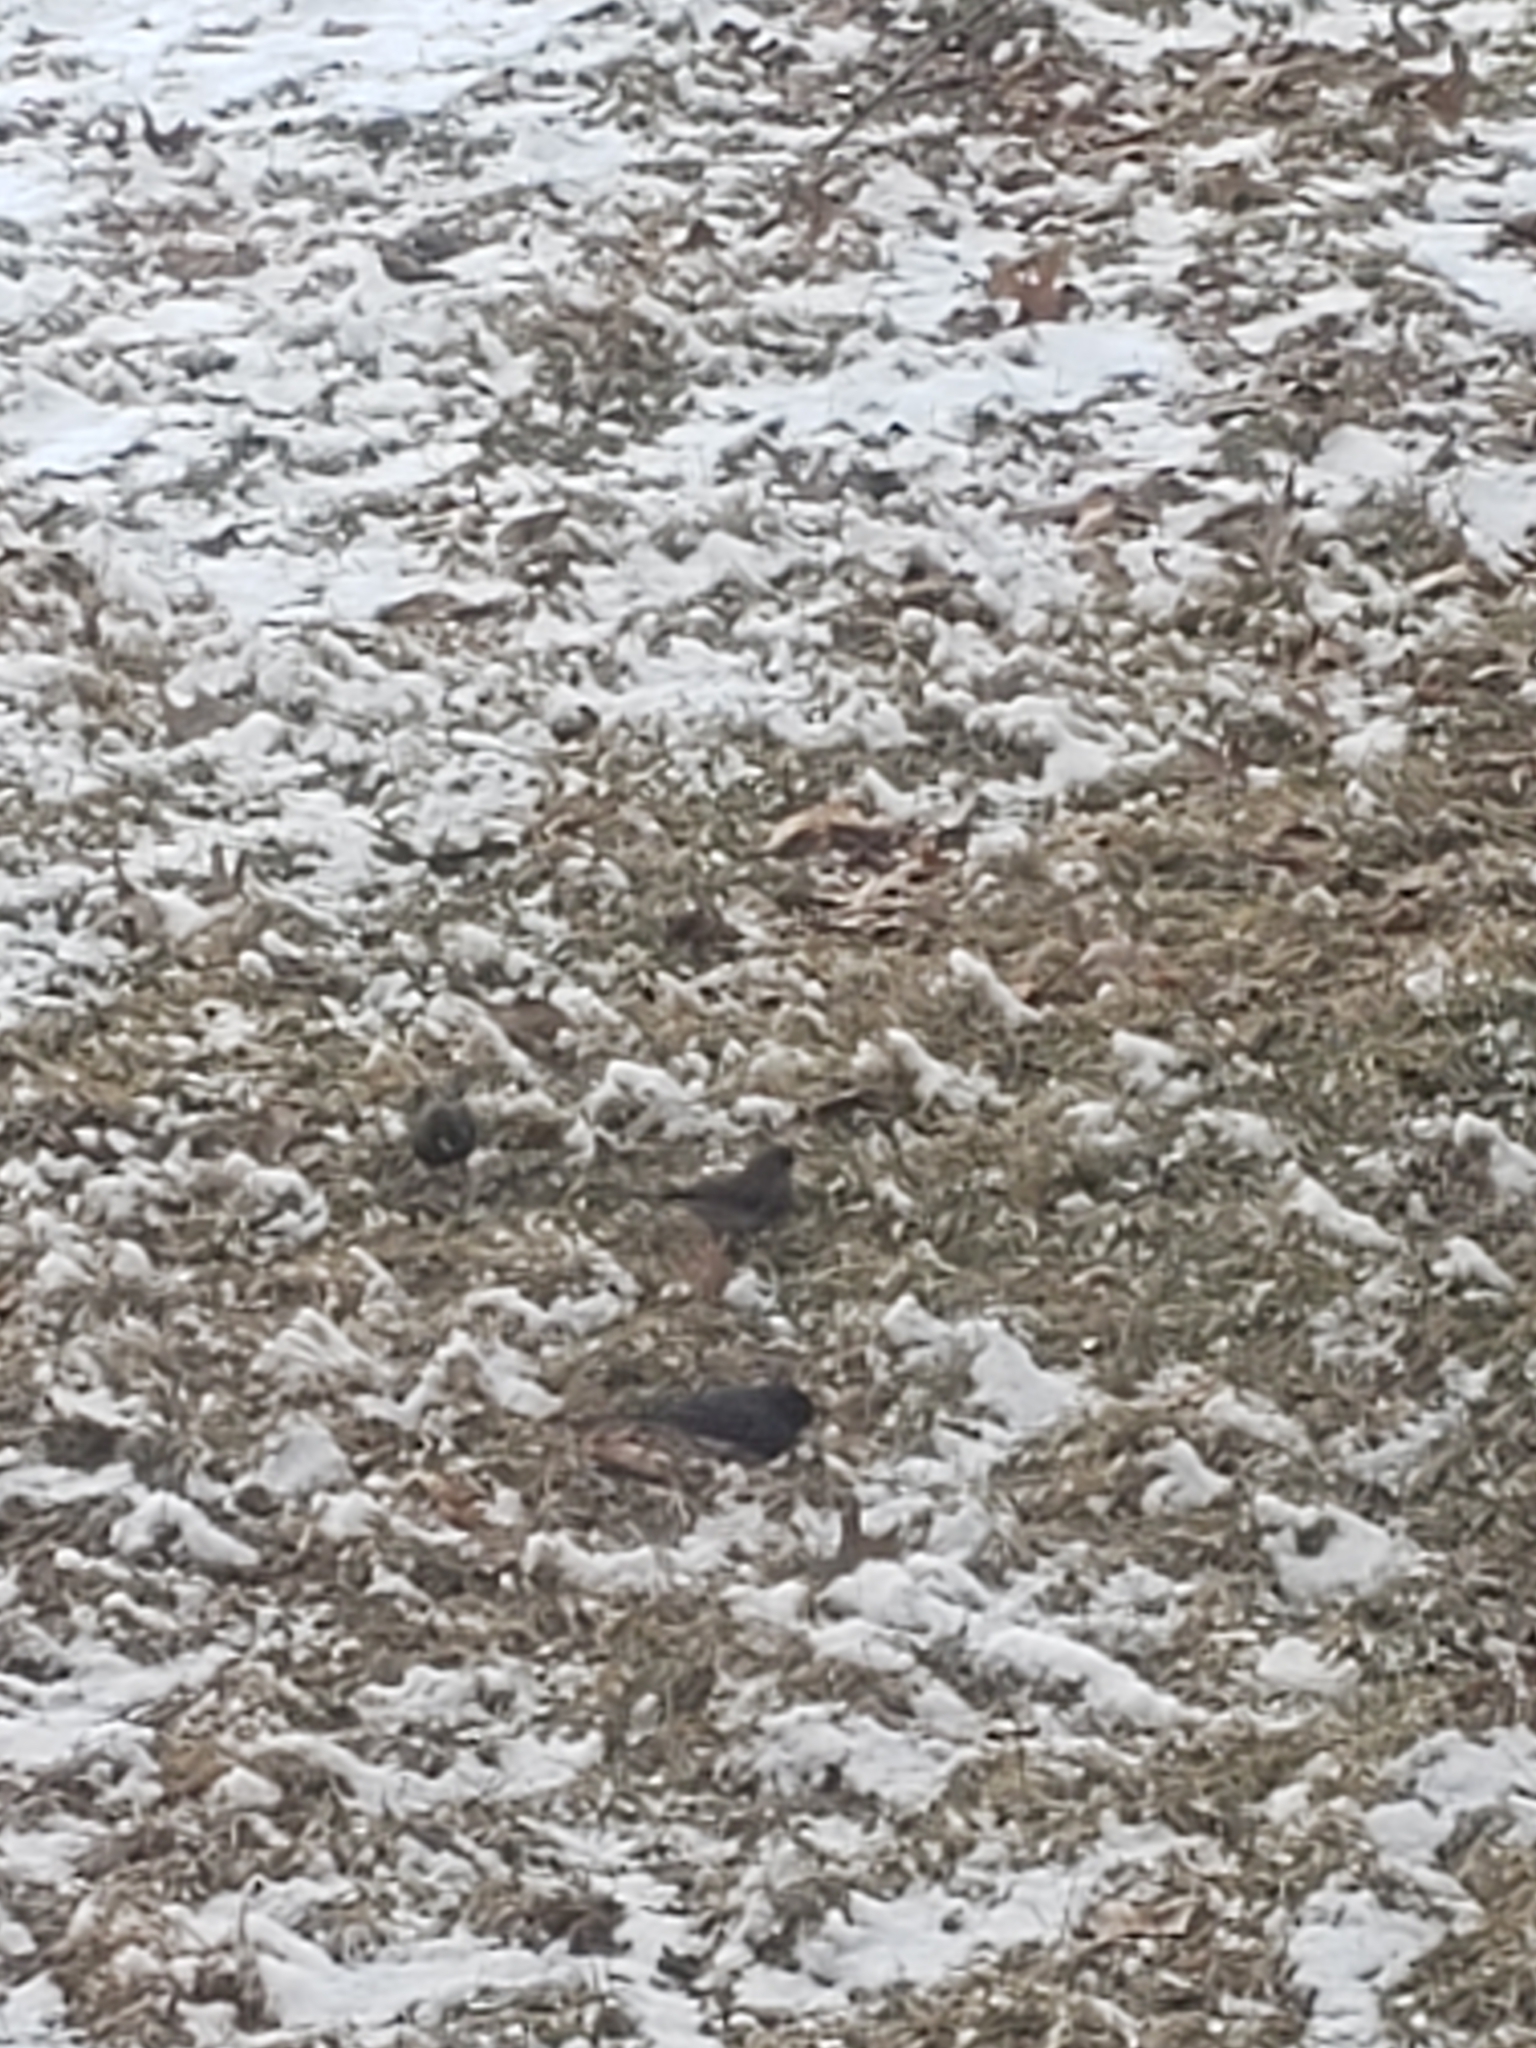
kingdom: Animalia
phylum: Chordata
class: Aves
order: Passeriformes
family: Passerellidae
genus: Junco
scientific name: Junco hyemalis
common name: Dark-eyed junco
